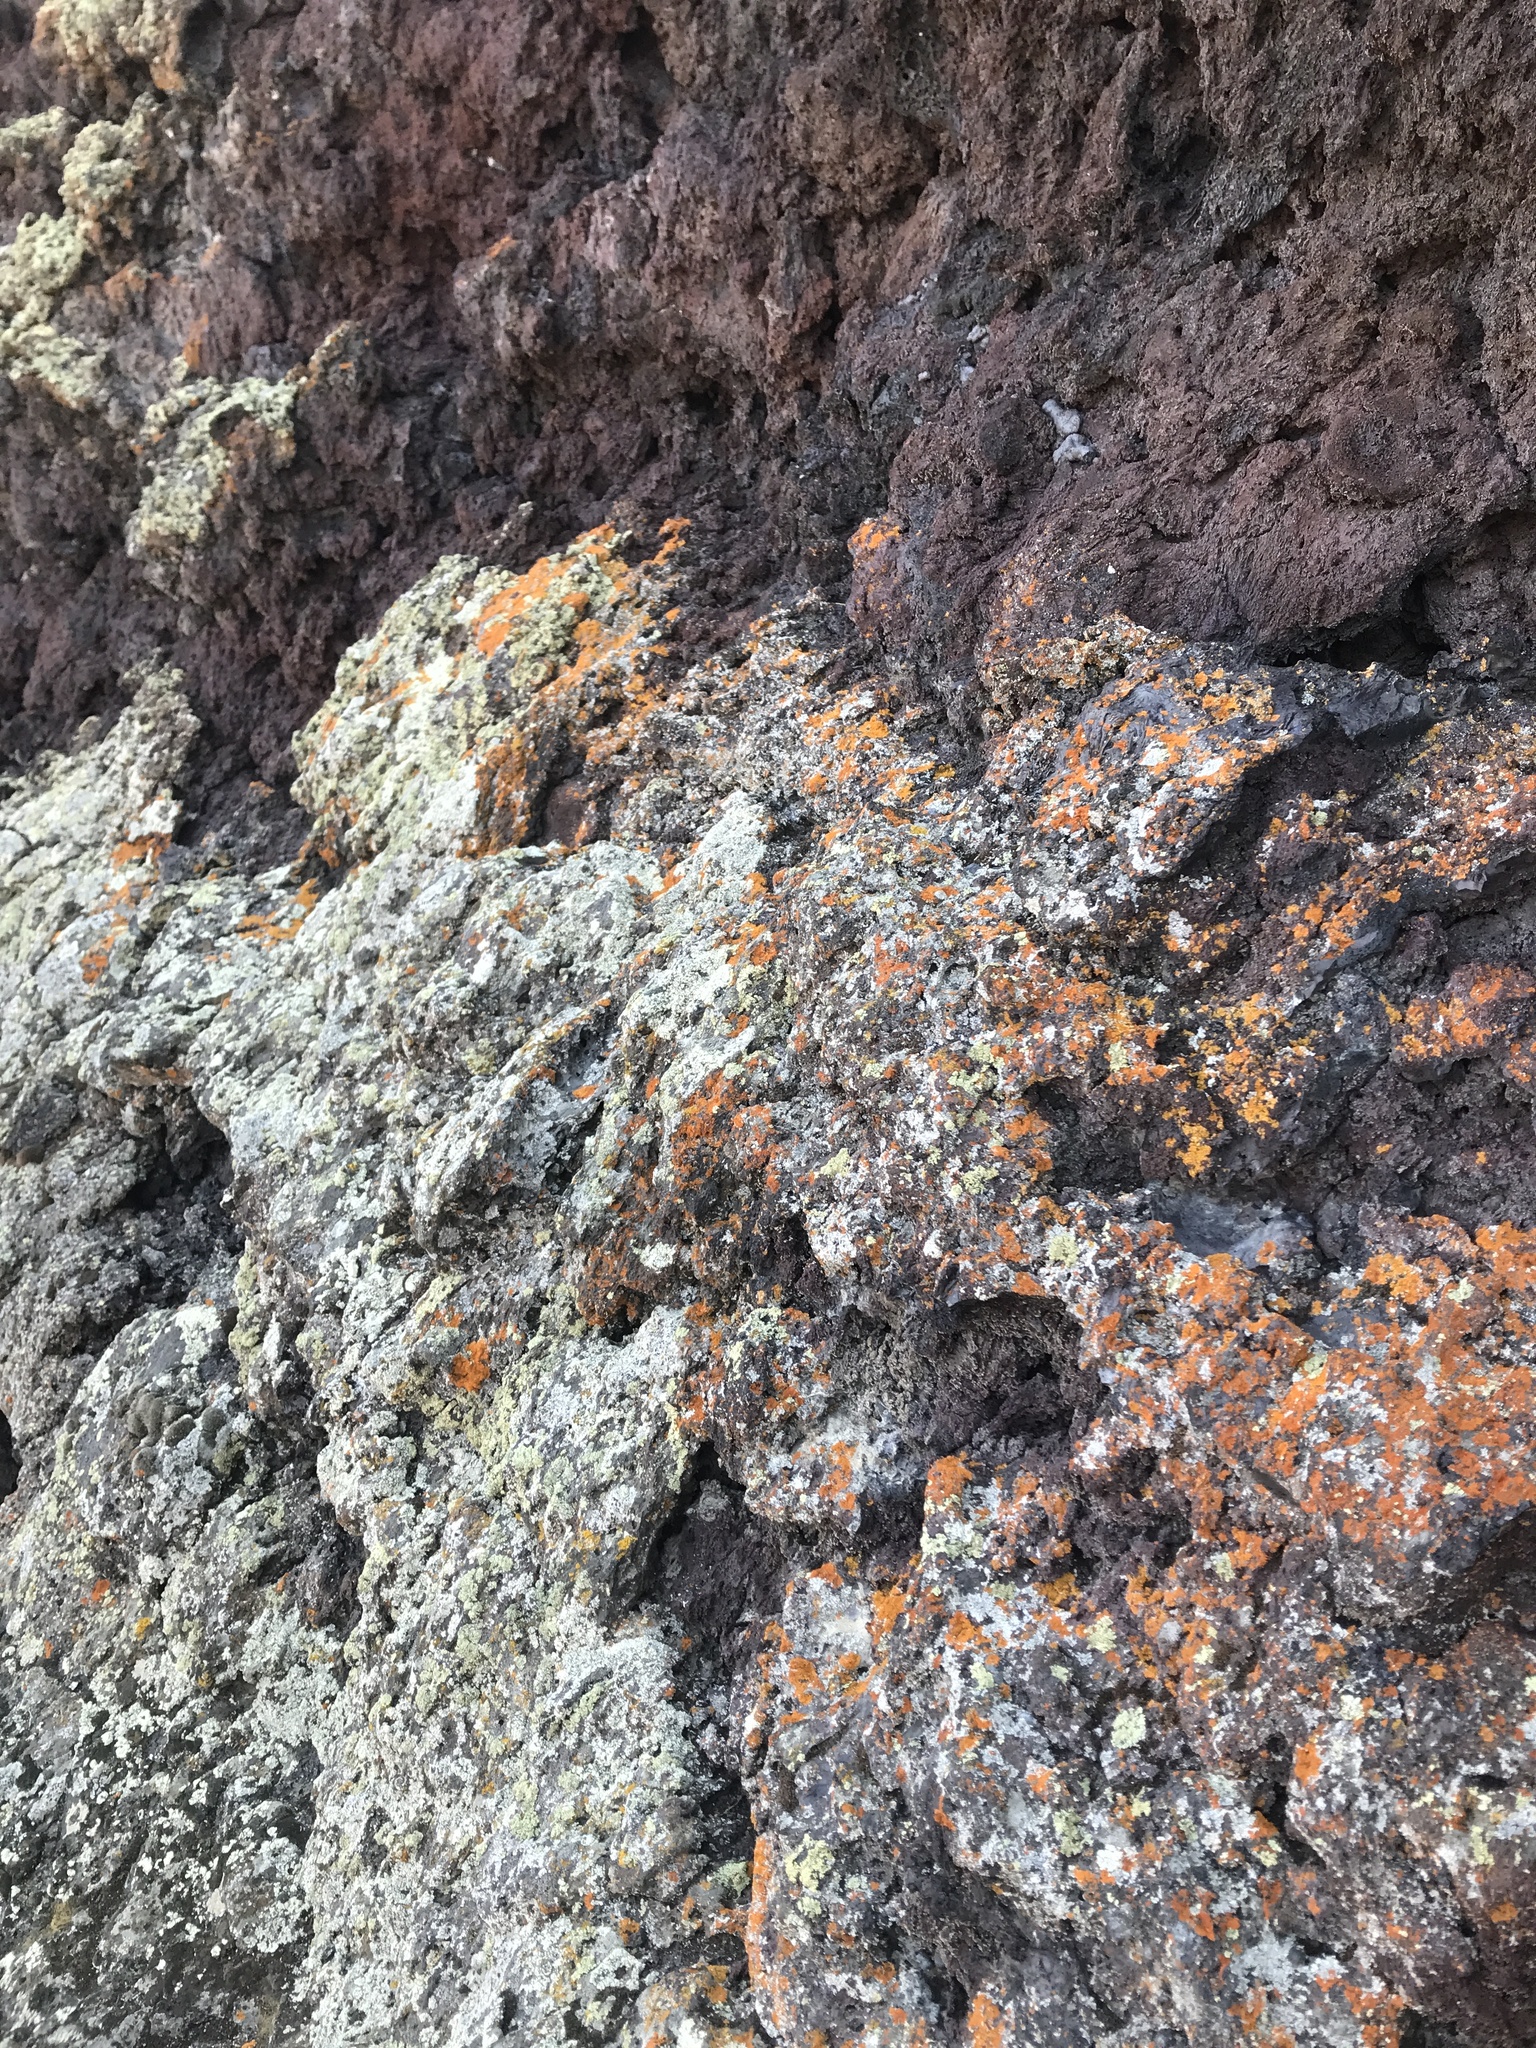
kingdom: Fungi
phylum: Ascomycota
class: Lecanoromycetes
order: Teloschistales
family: Teloschistaceae
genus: Xanthoria
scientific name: Xanthoria elegans
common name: Elegant sunburst lichen
